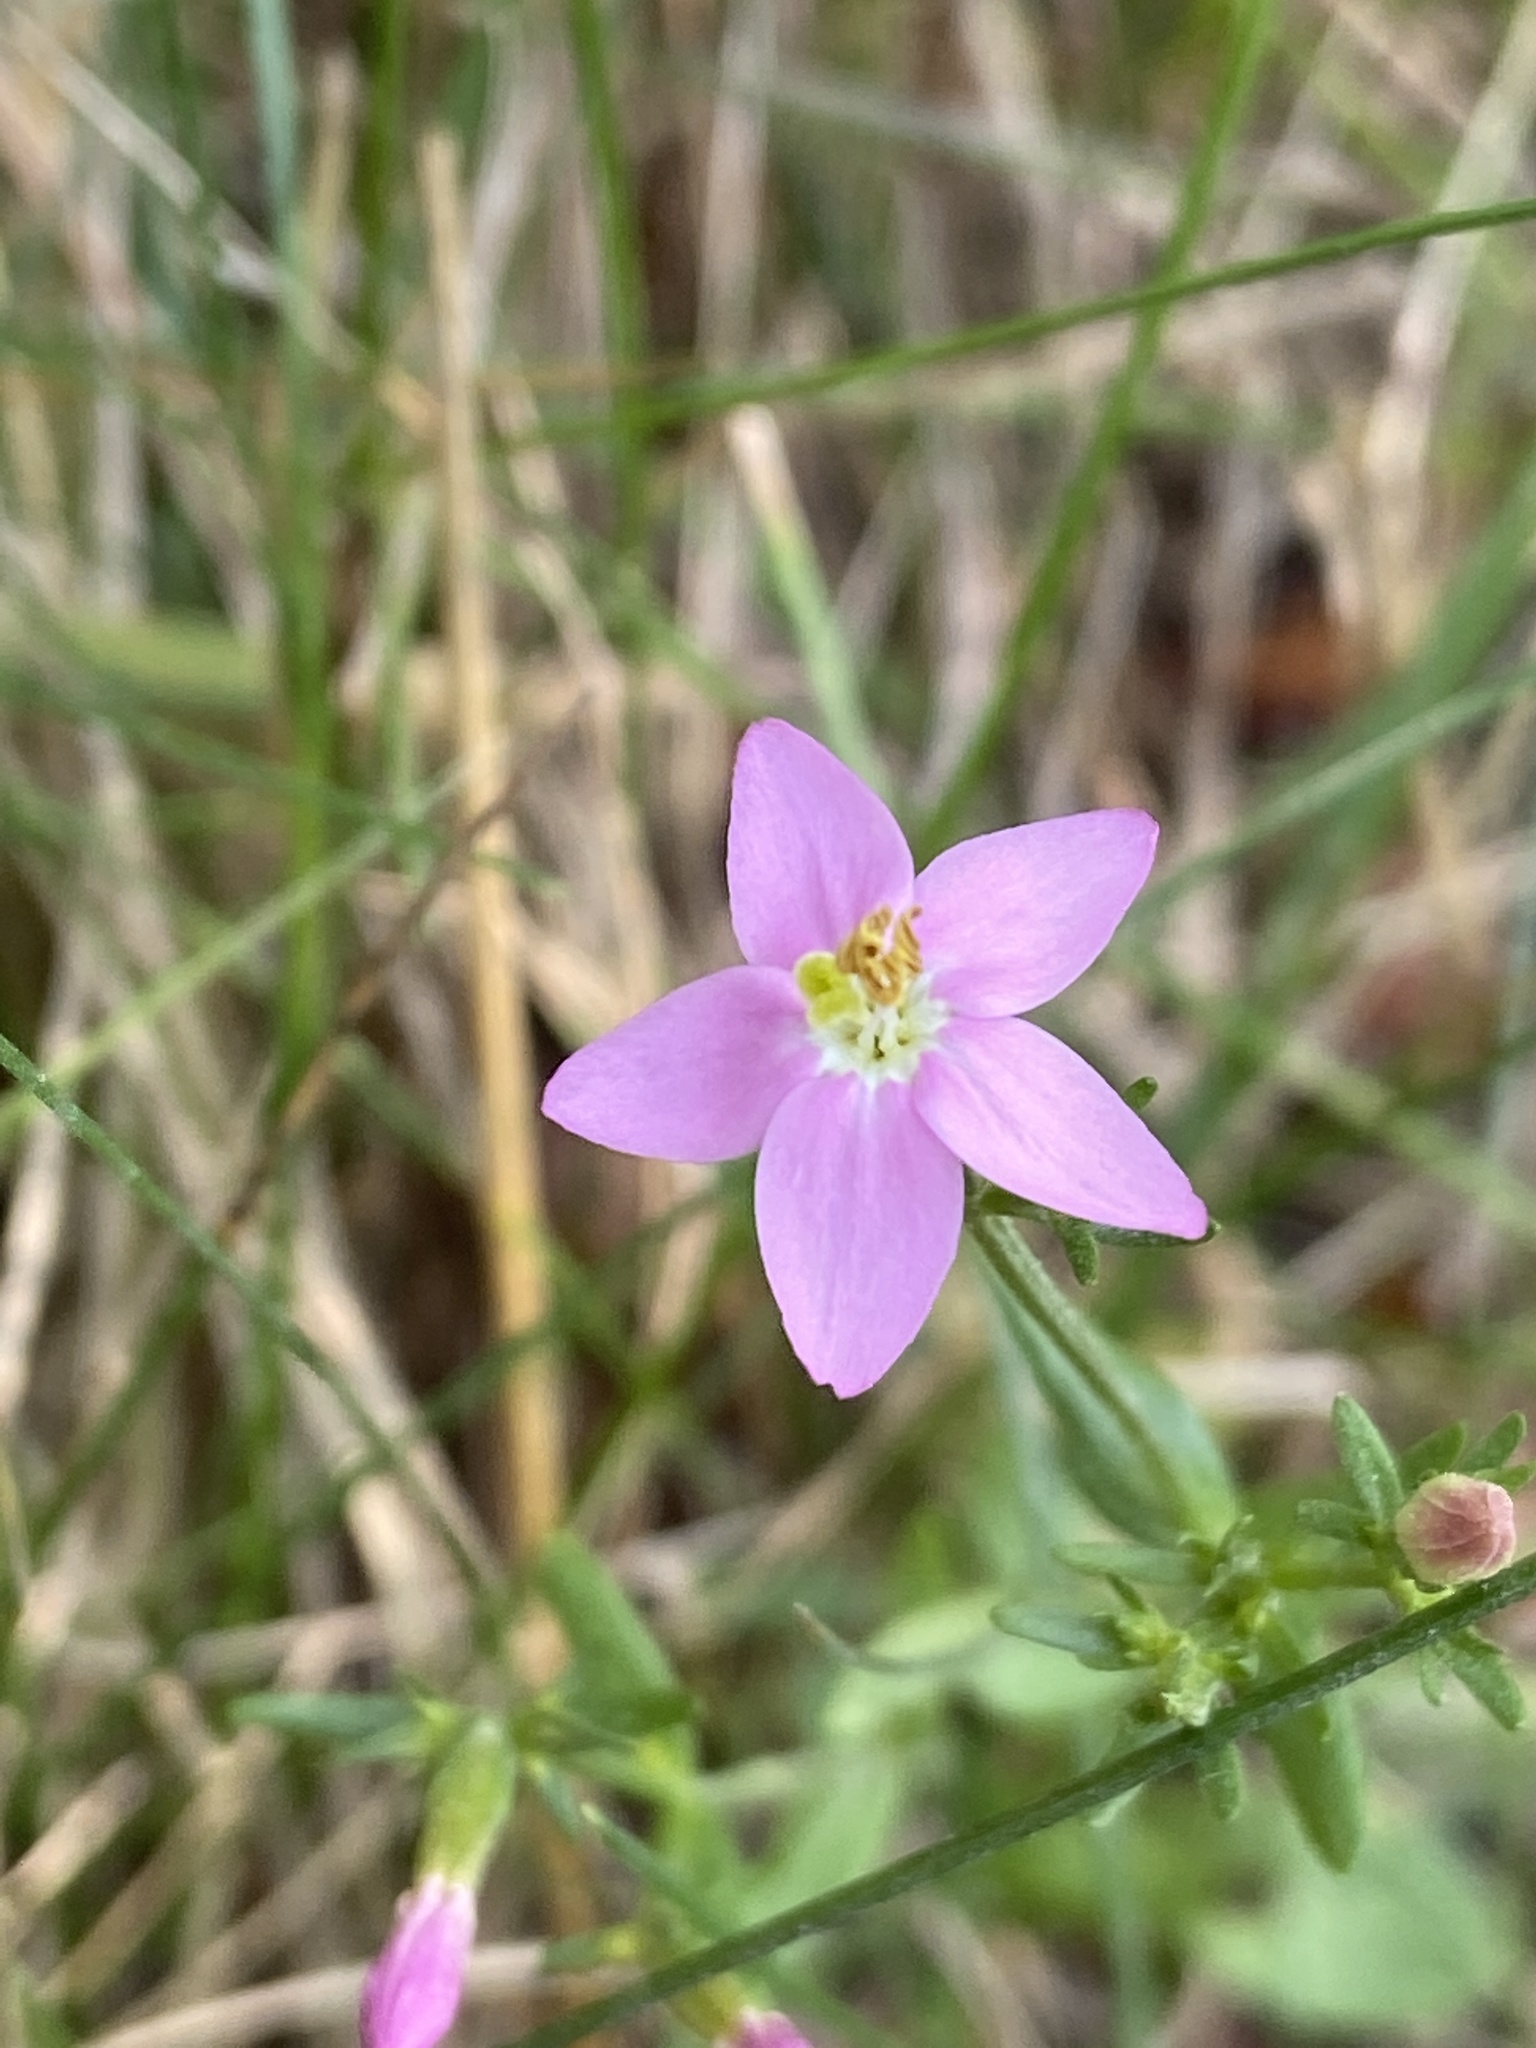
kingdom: Plantae
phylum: Tracheophyta
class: Magnoliopsida
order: Gentianales
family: Gentianaceae
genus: Centaurium
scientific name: Centaurium erythraea
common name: Common centaury
